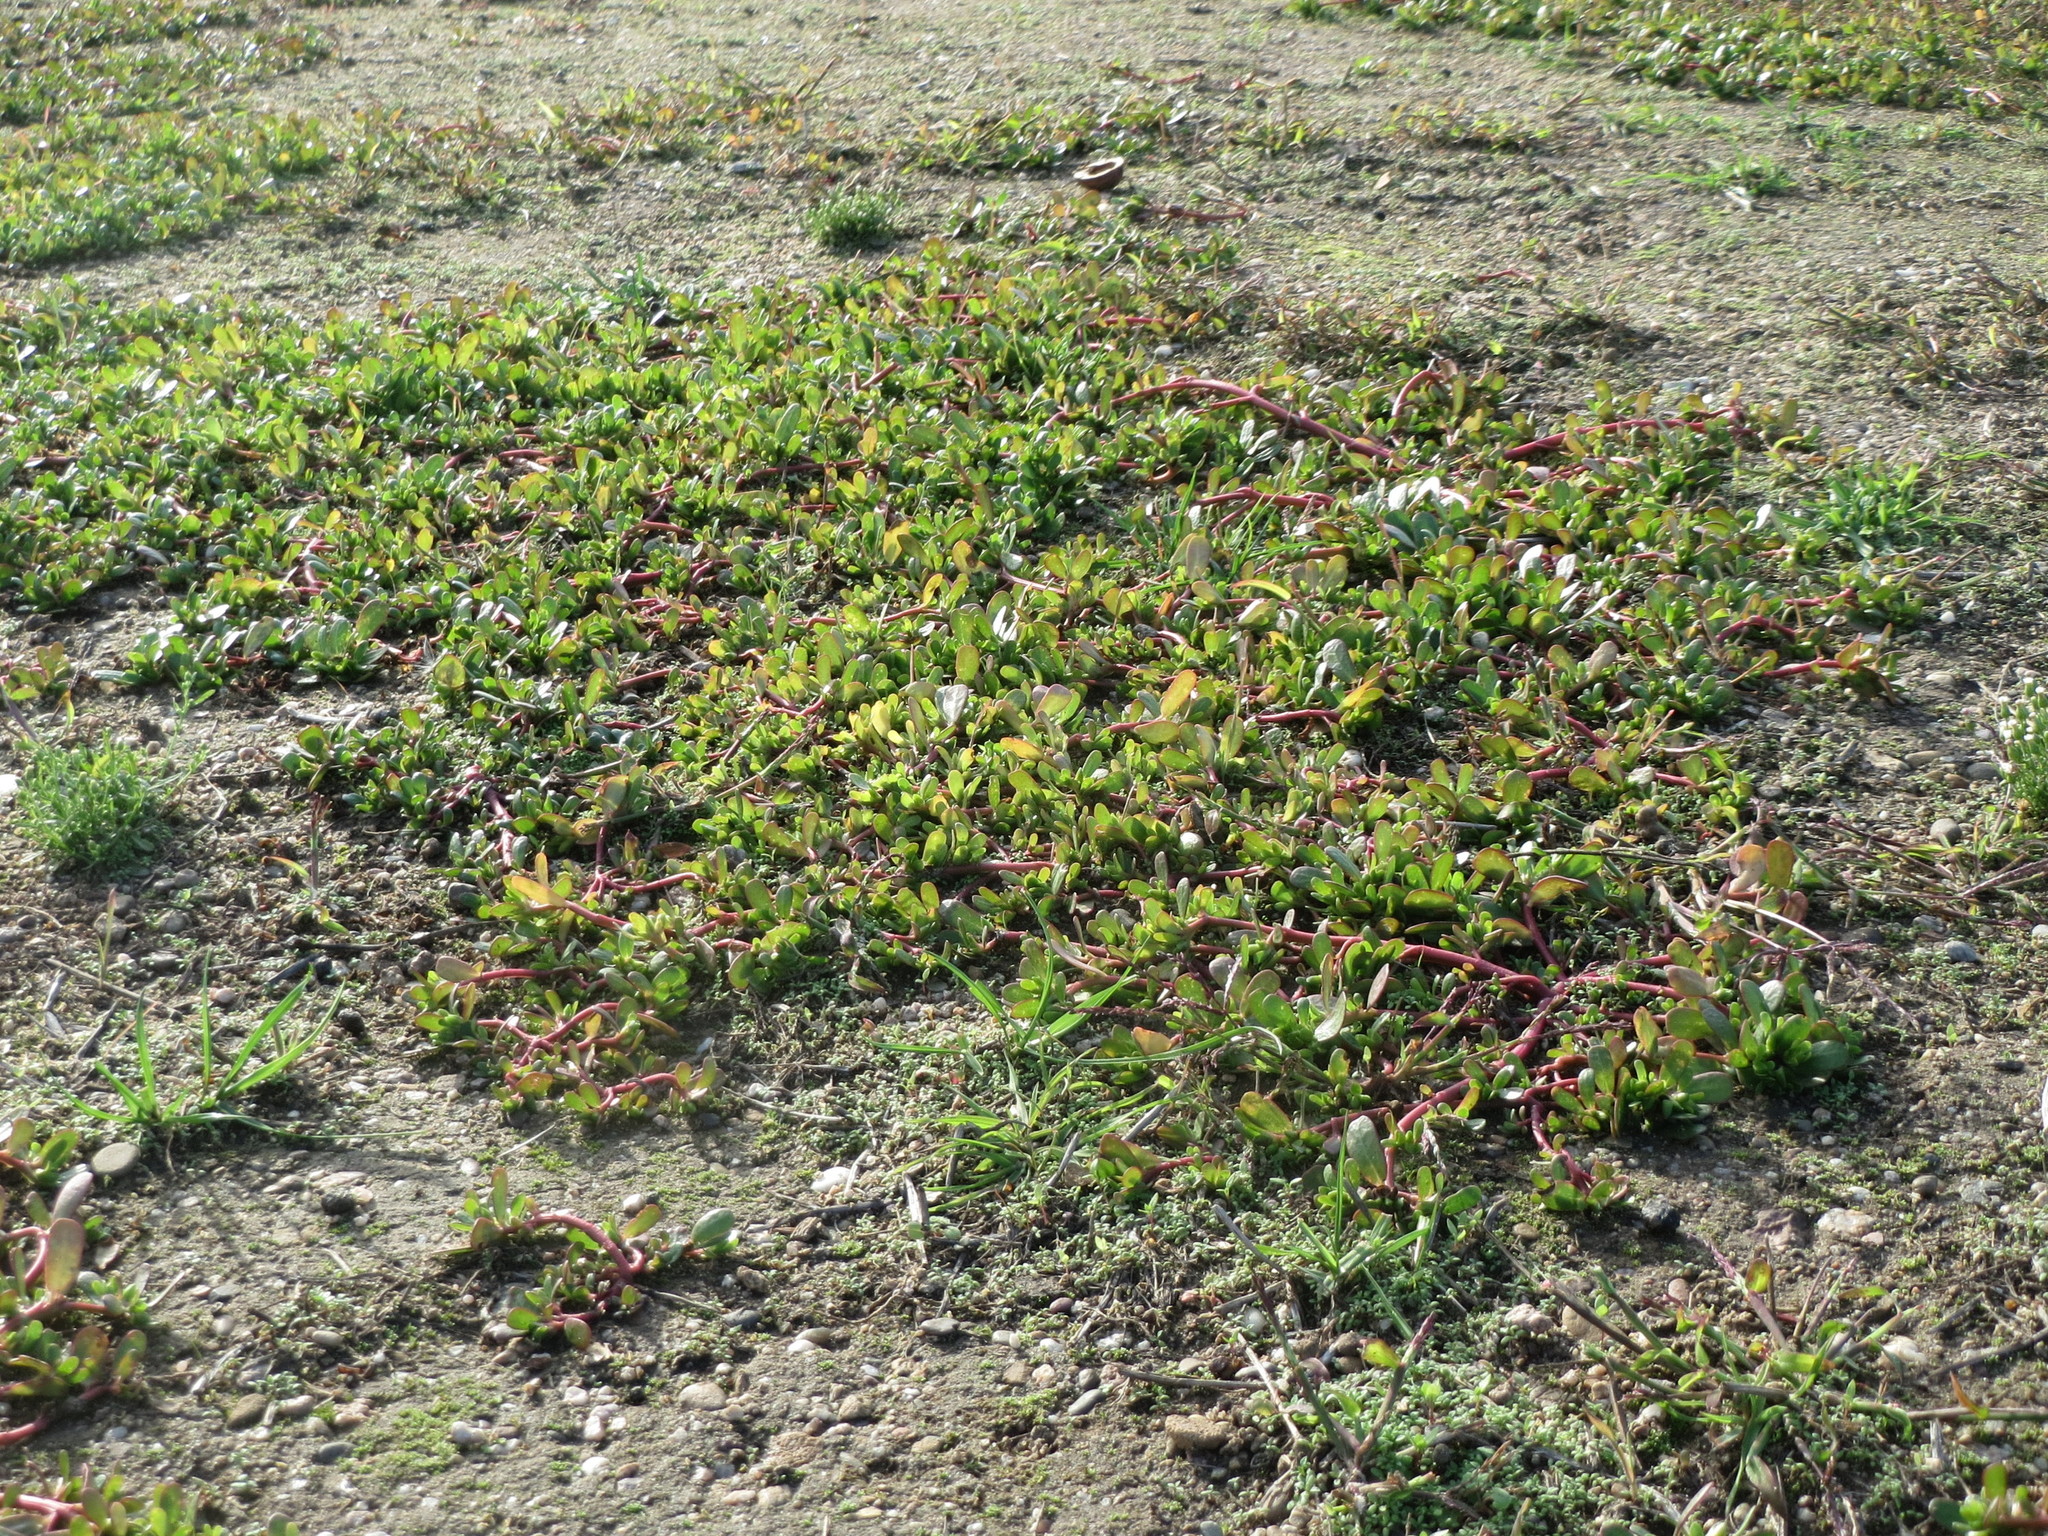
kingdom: Plantae
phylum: Tracheophyta
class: Magnoliopsida
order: Caryophyllales
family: Portulacaceae
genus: Portulaca
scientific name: Portulaca oleracea
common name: Common purslane
